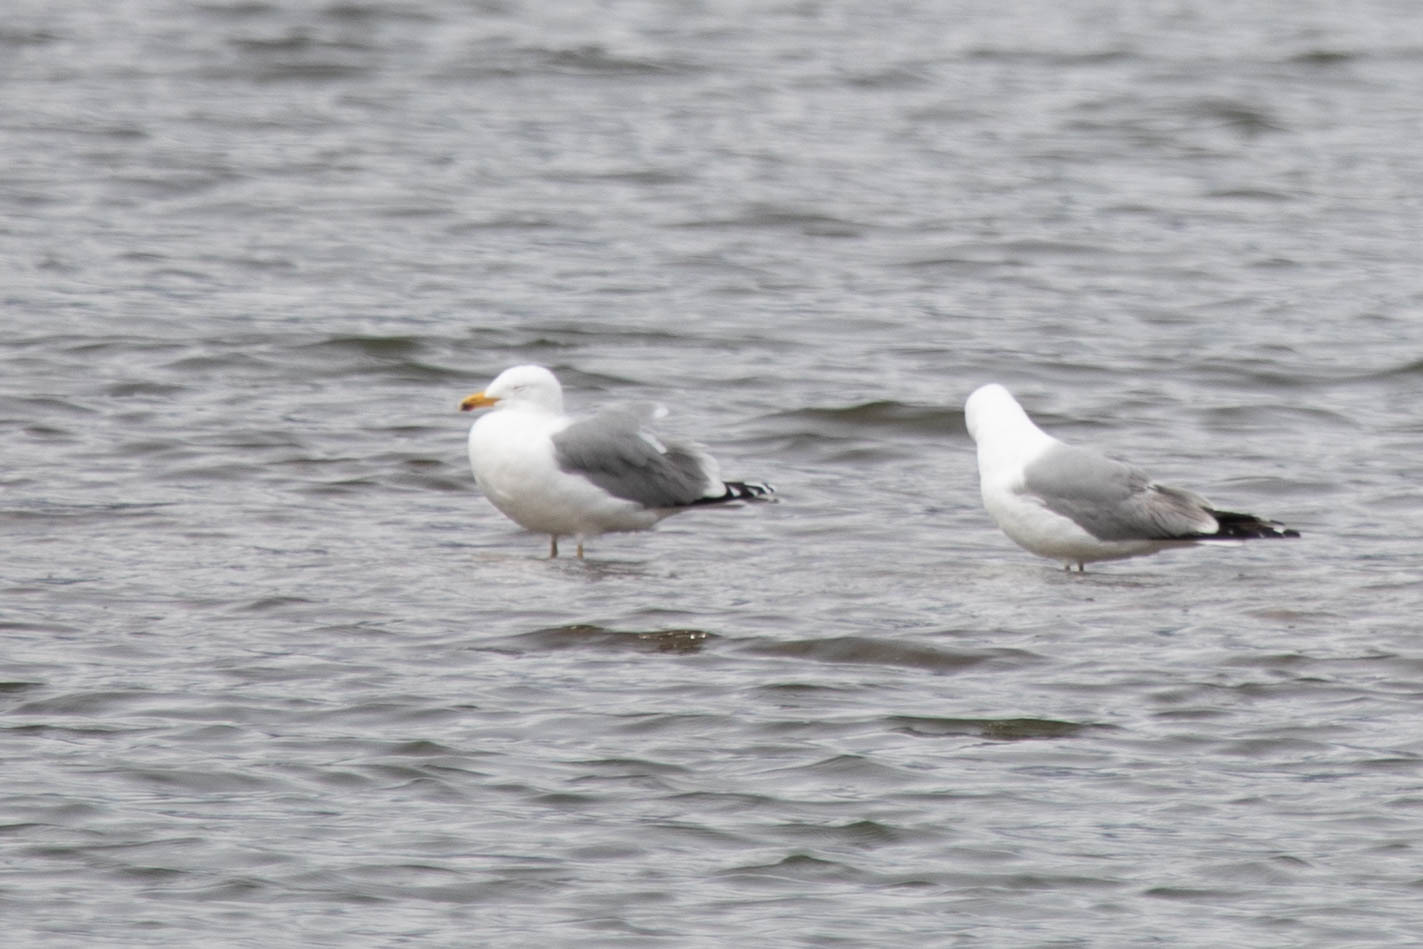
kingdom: Animalia
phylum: Chordata
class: Aves
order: Charadriiformes
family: Laridae
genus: Larus
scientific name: Larus californicus
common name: California gull
